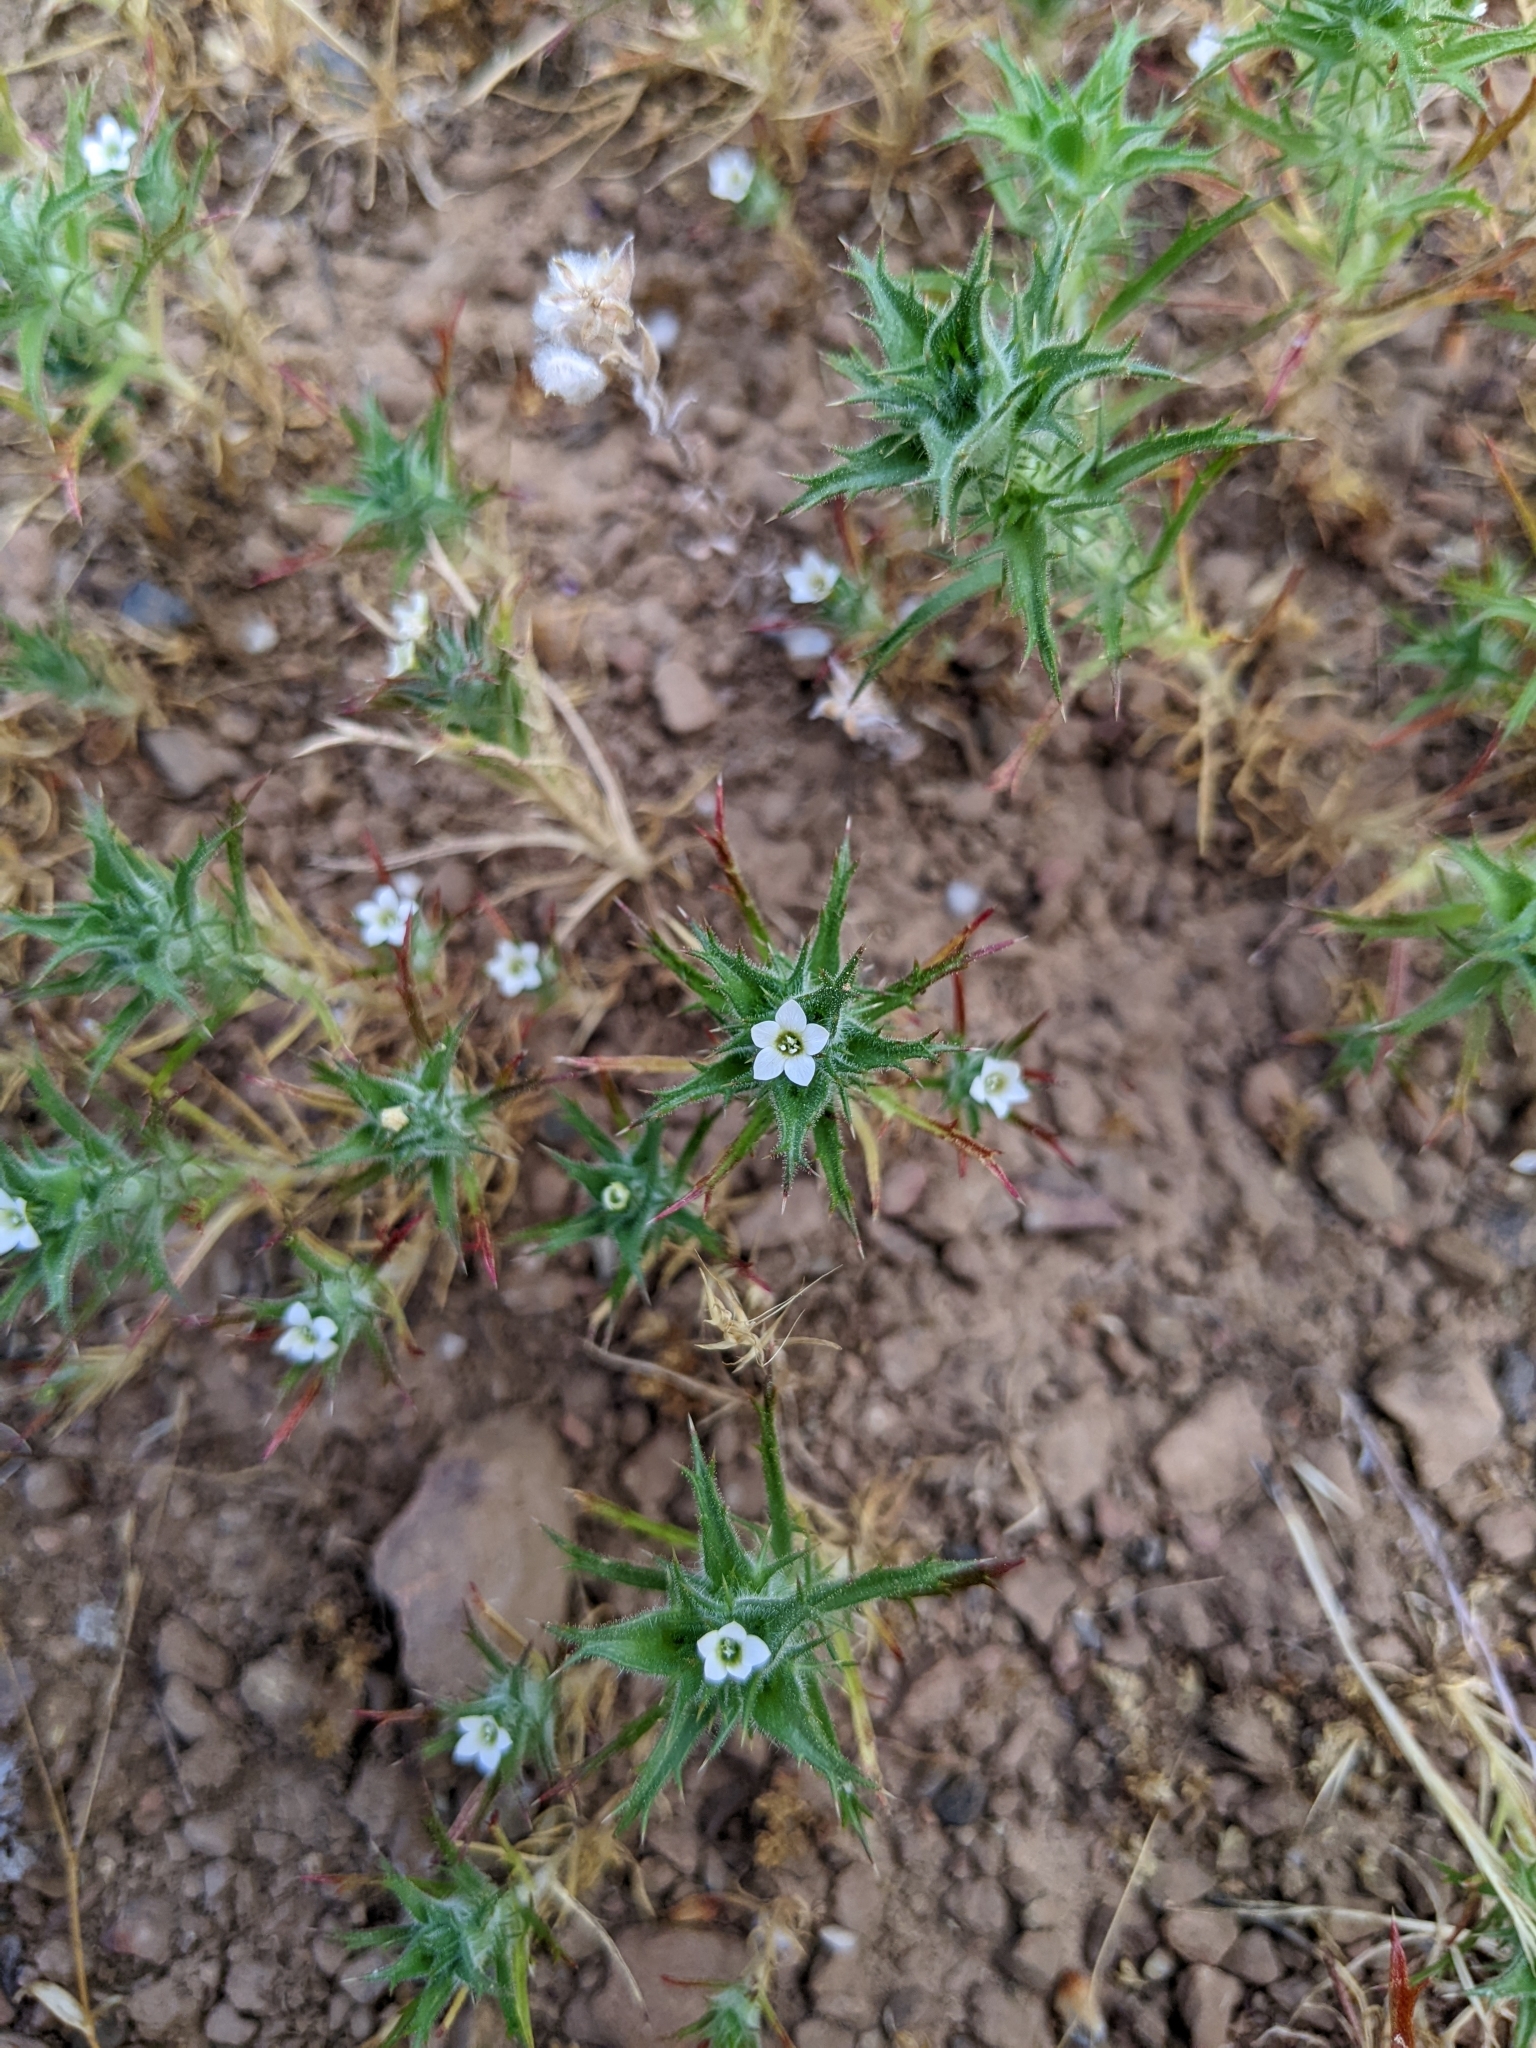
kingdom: Plantae
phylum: Tracheophyta
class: Magnoliopsida
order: Ericales
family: Polemoniaceae
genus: Navarretia
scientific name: Navarretia atractyloides
